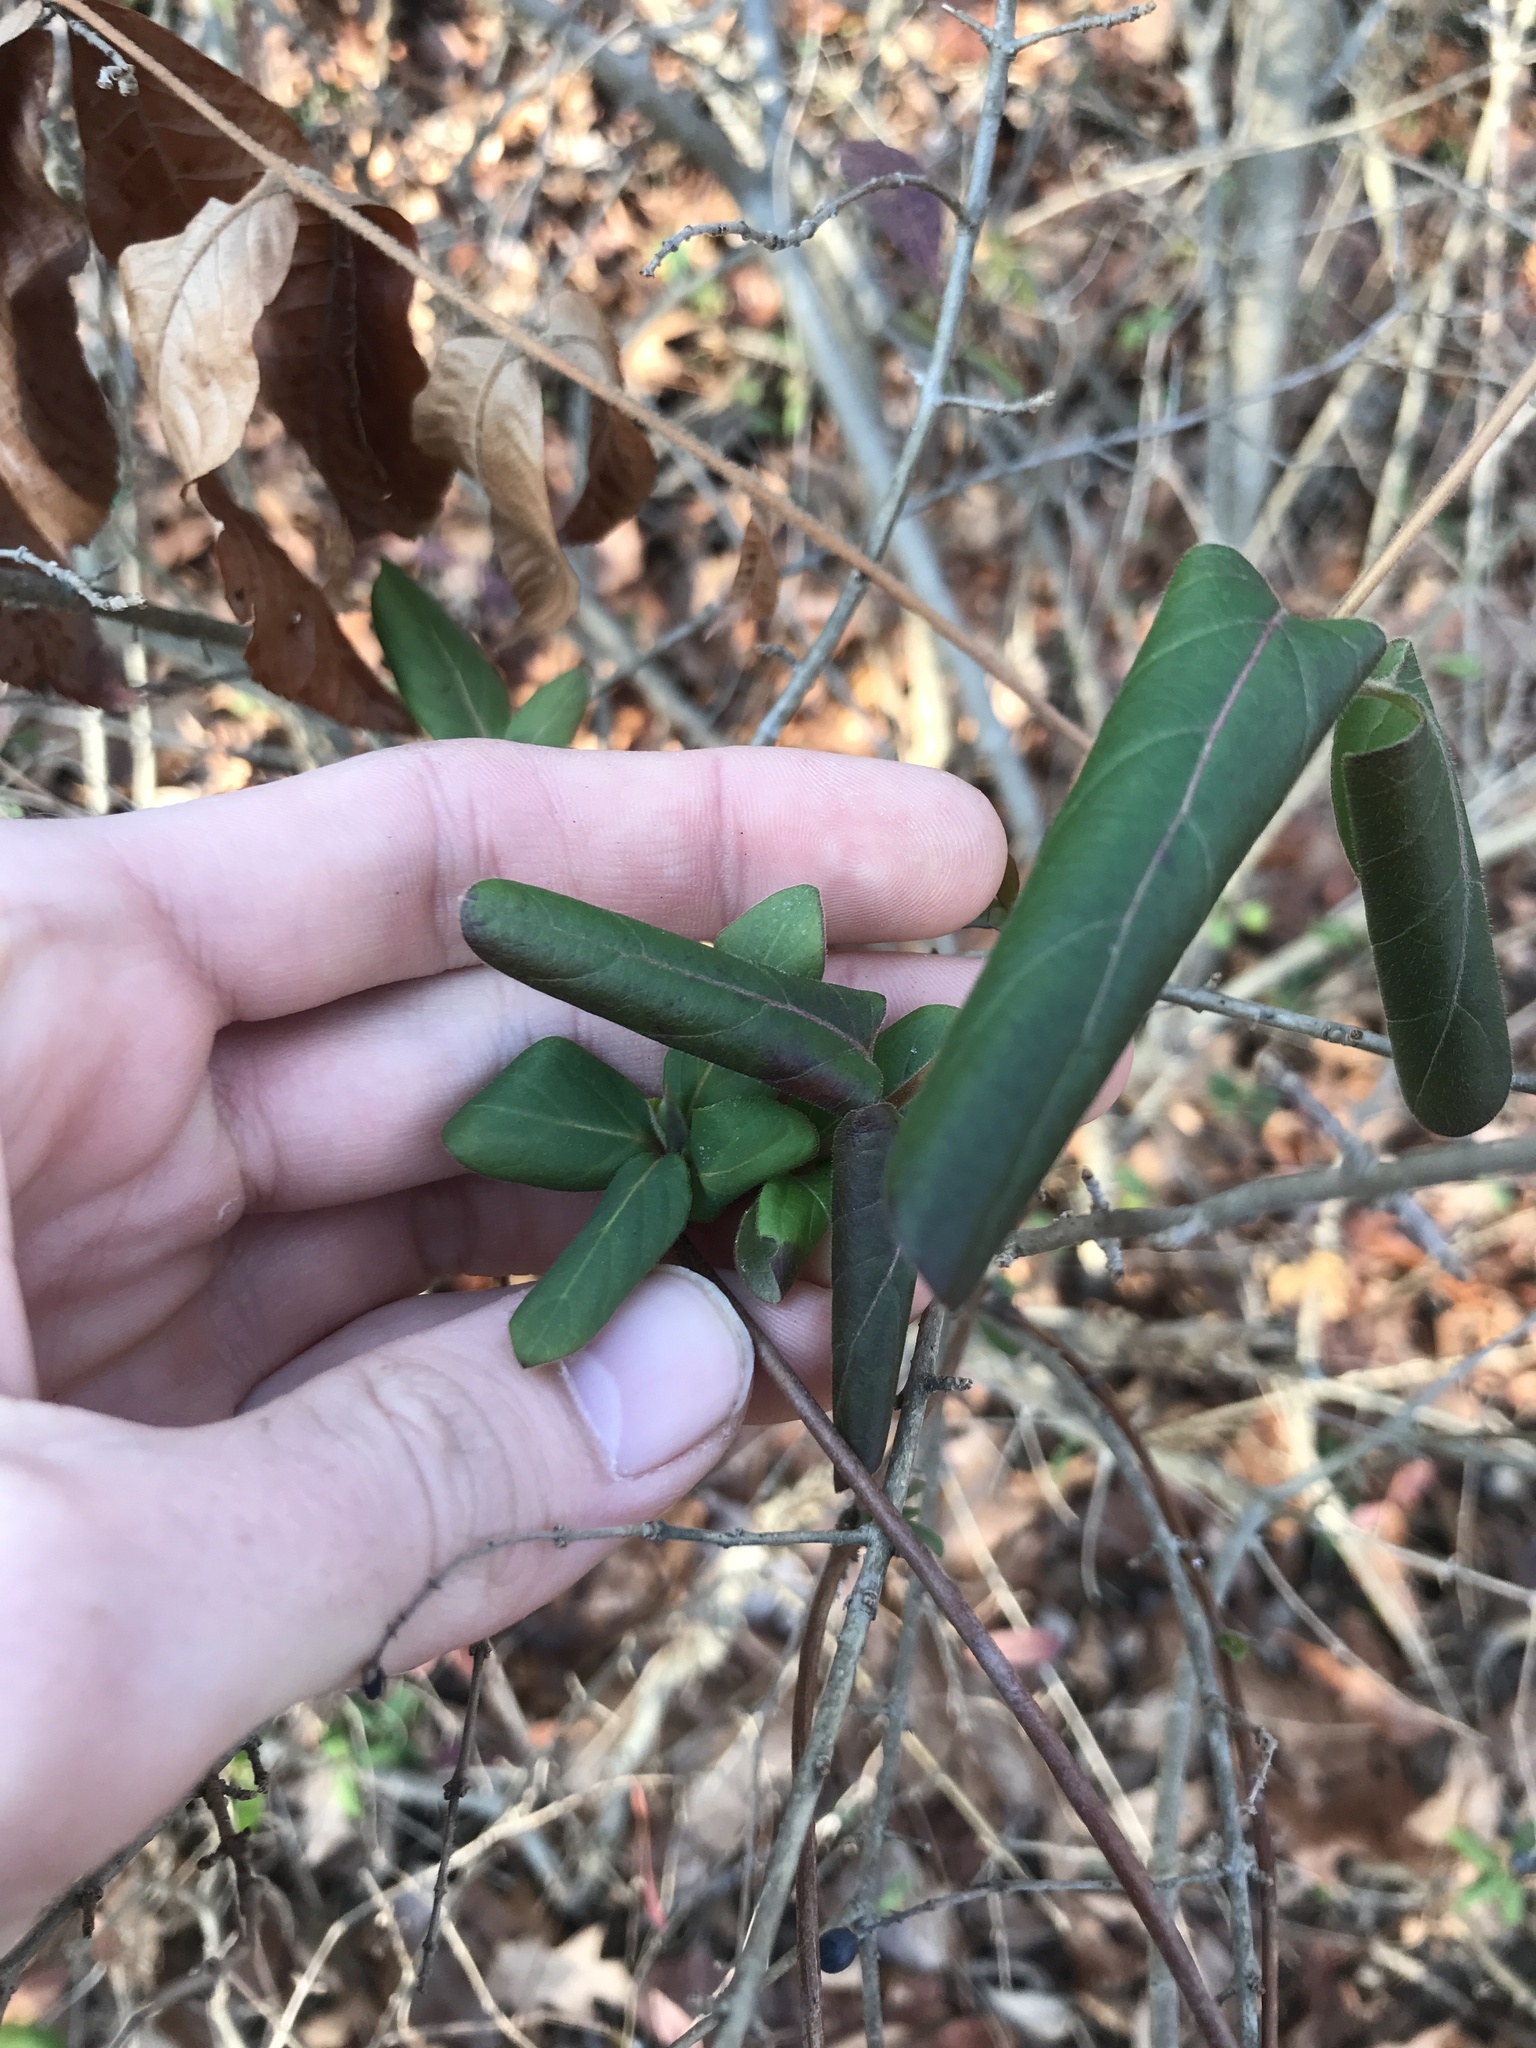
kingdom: Plantae
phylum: Tracheophyta
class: Magnoliopsida
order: Dipsacales
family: Caprifoliaceae
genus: Lonicera
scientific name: Lonicera japonica
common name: Japanese honeysuckle
